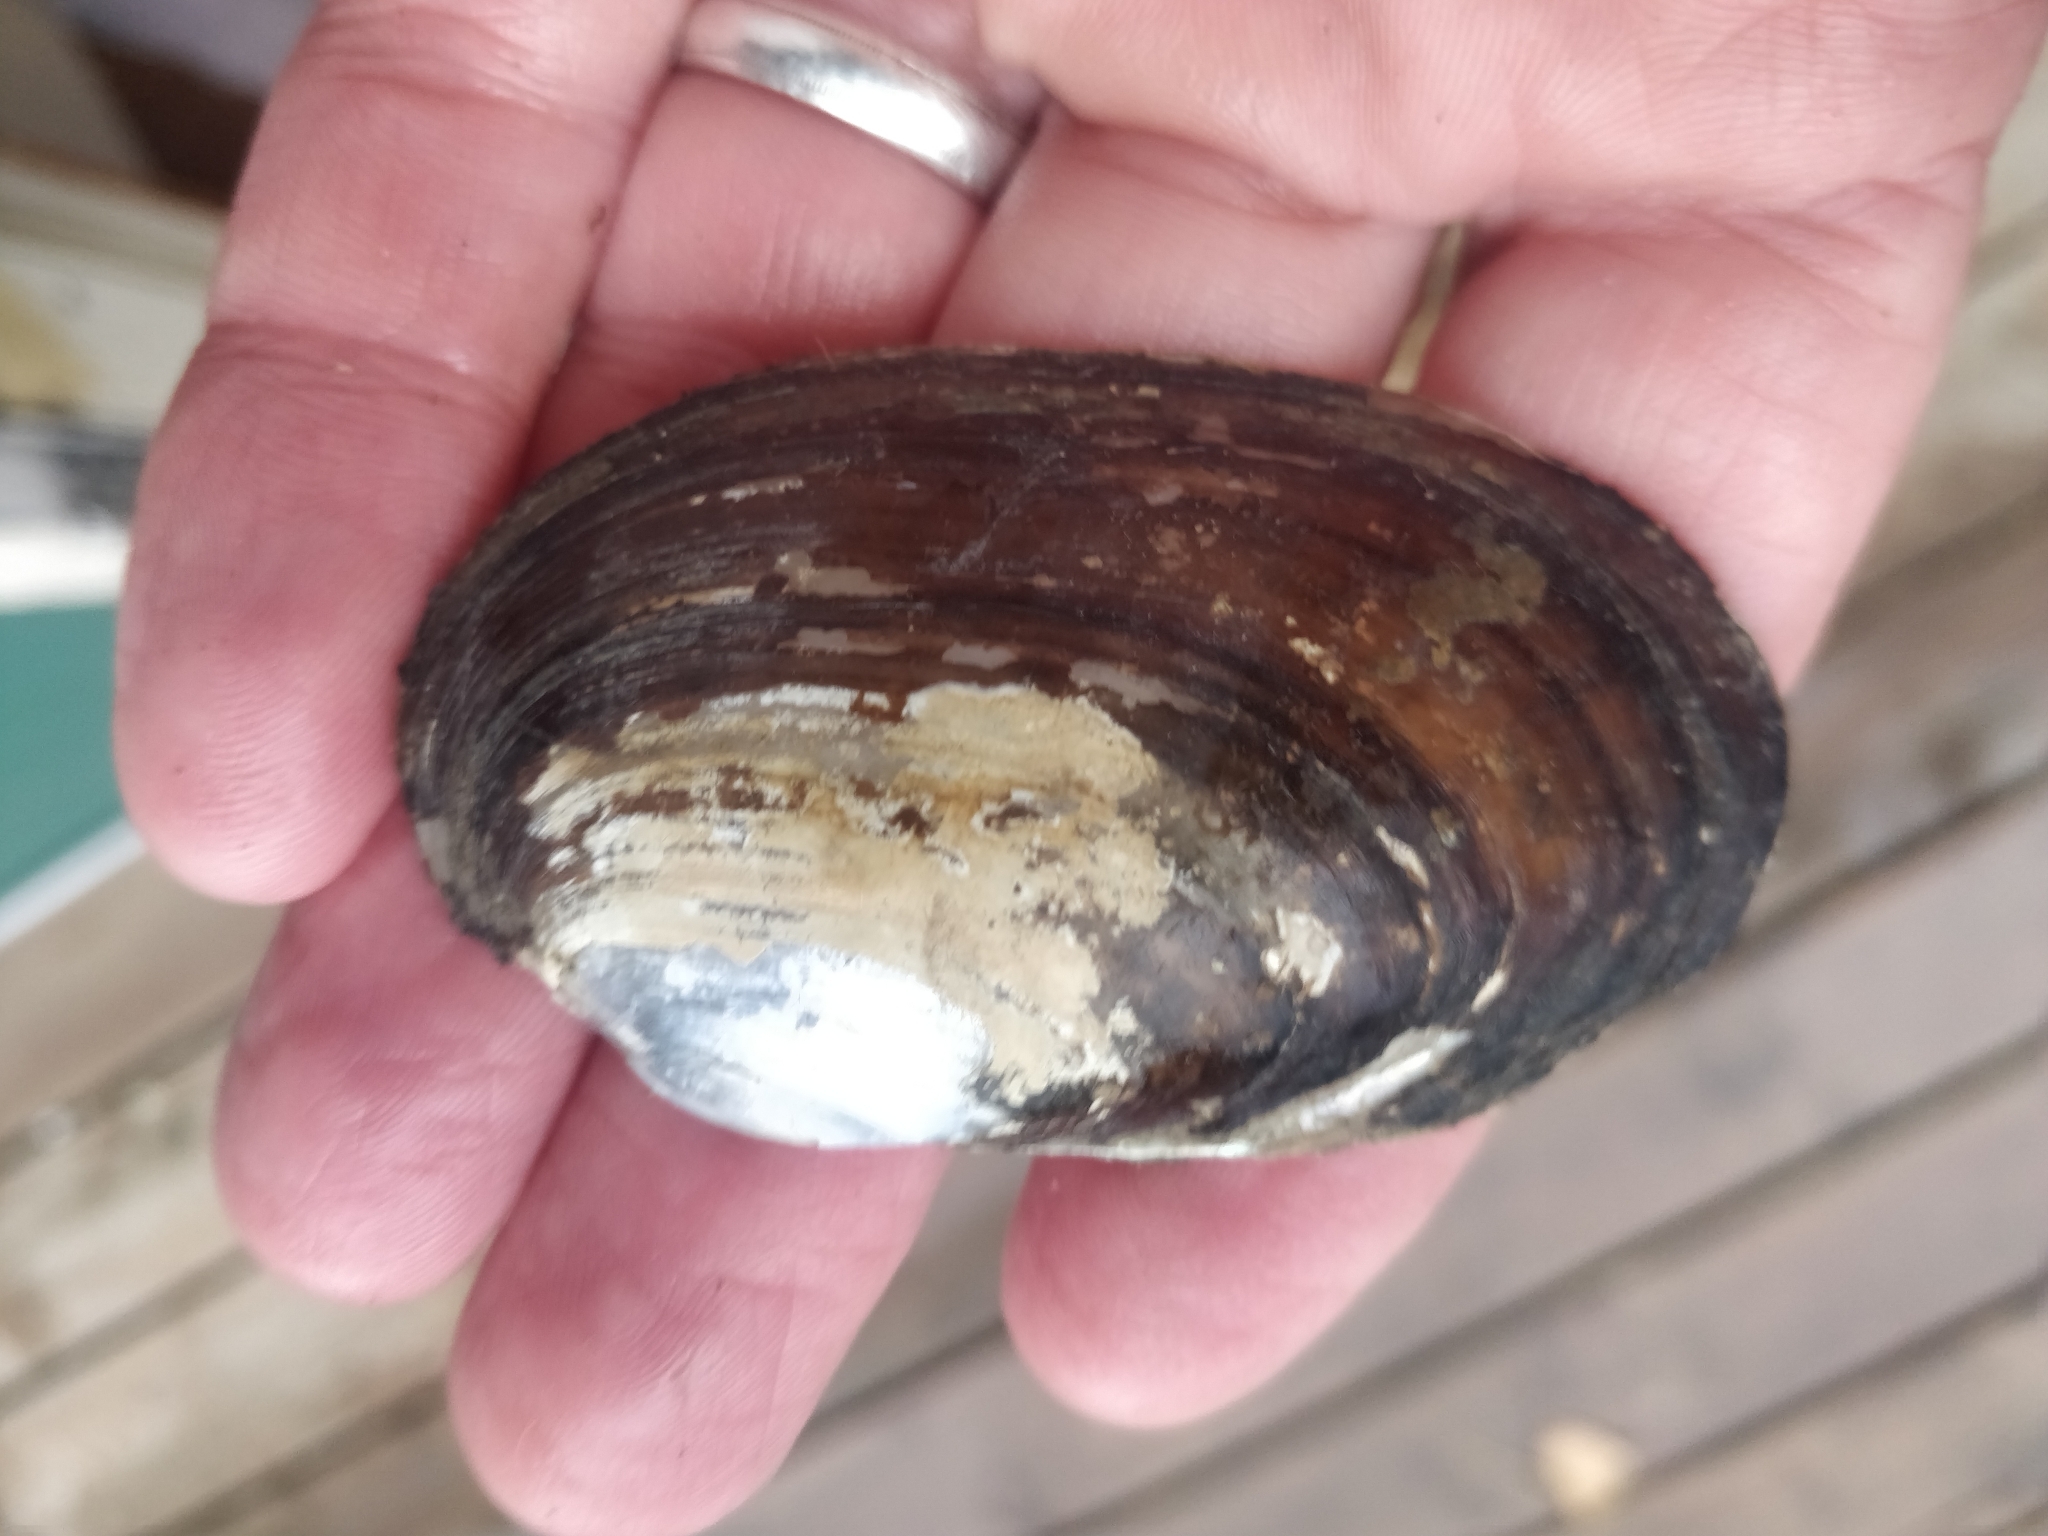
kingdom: Animalia
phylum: Mollusca
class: Bivalvia
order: Unionida
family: Unionidae
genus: Lampsilis
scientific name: Lampsilis siliquoidea
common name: Fatmucket
